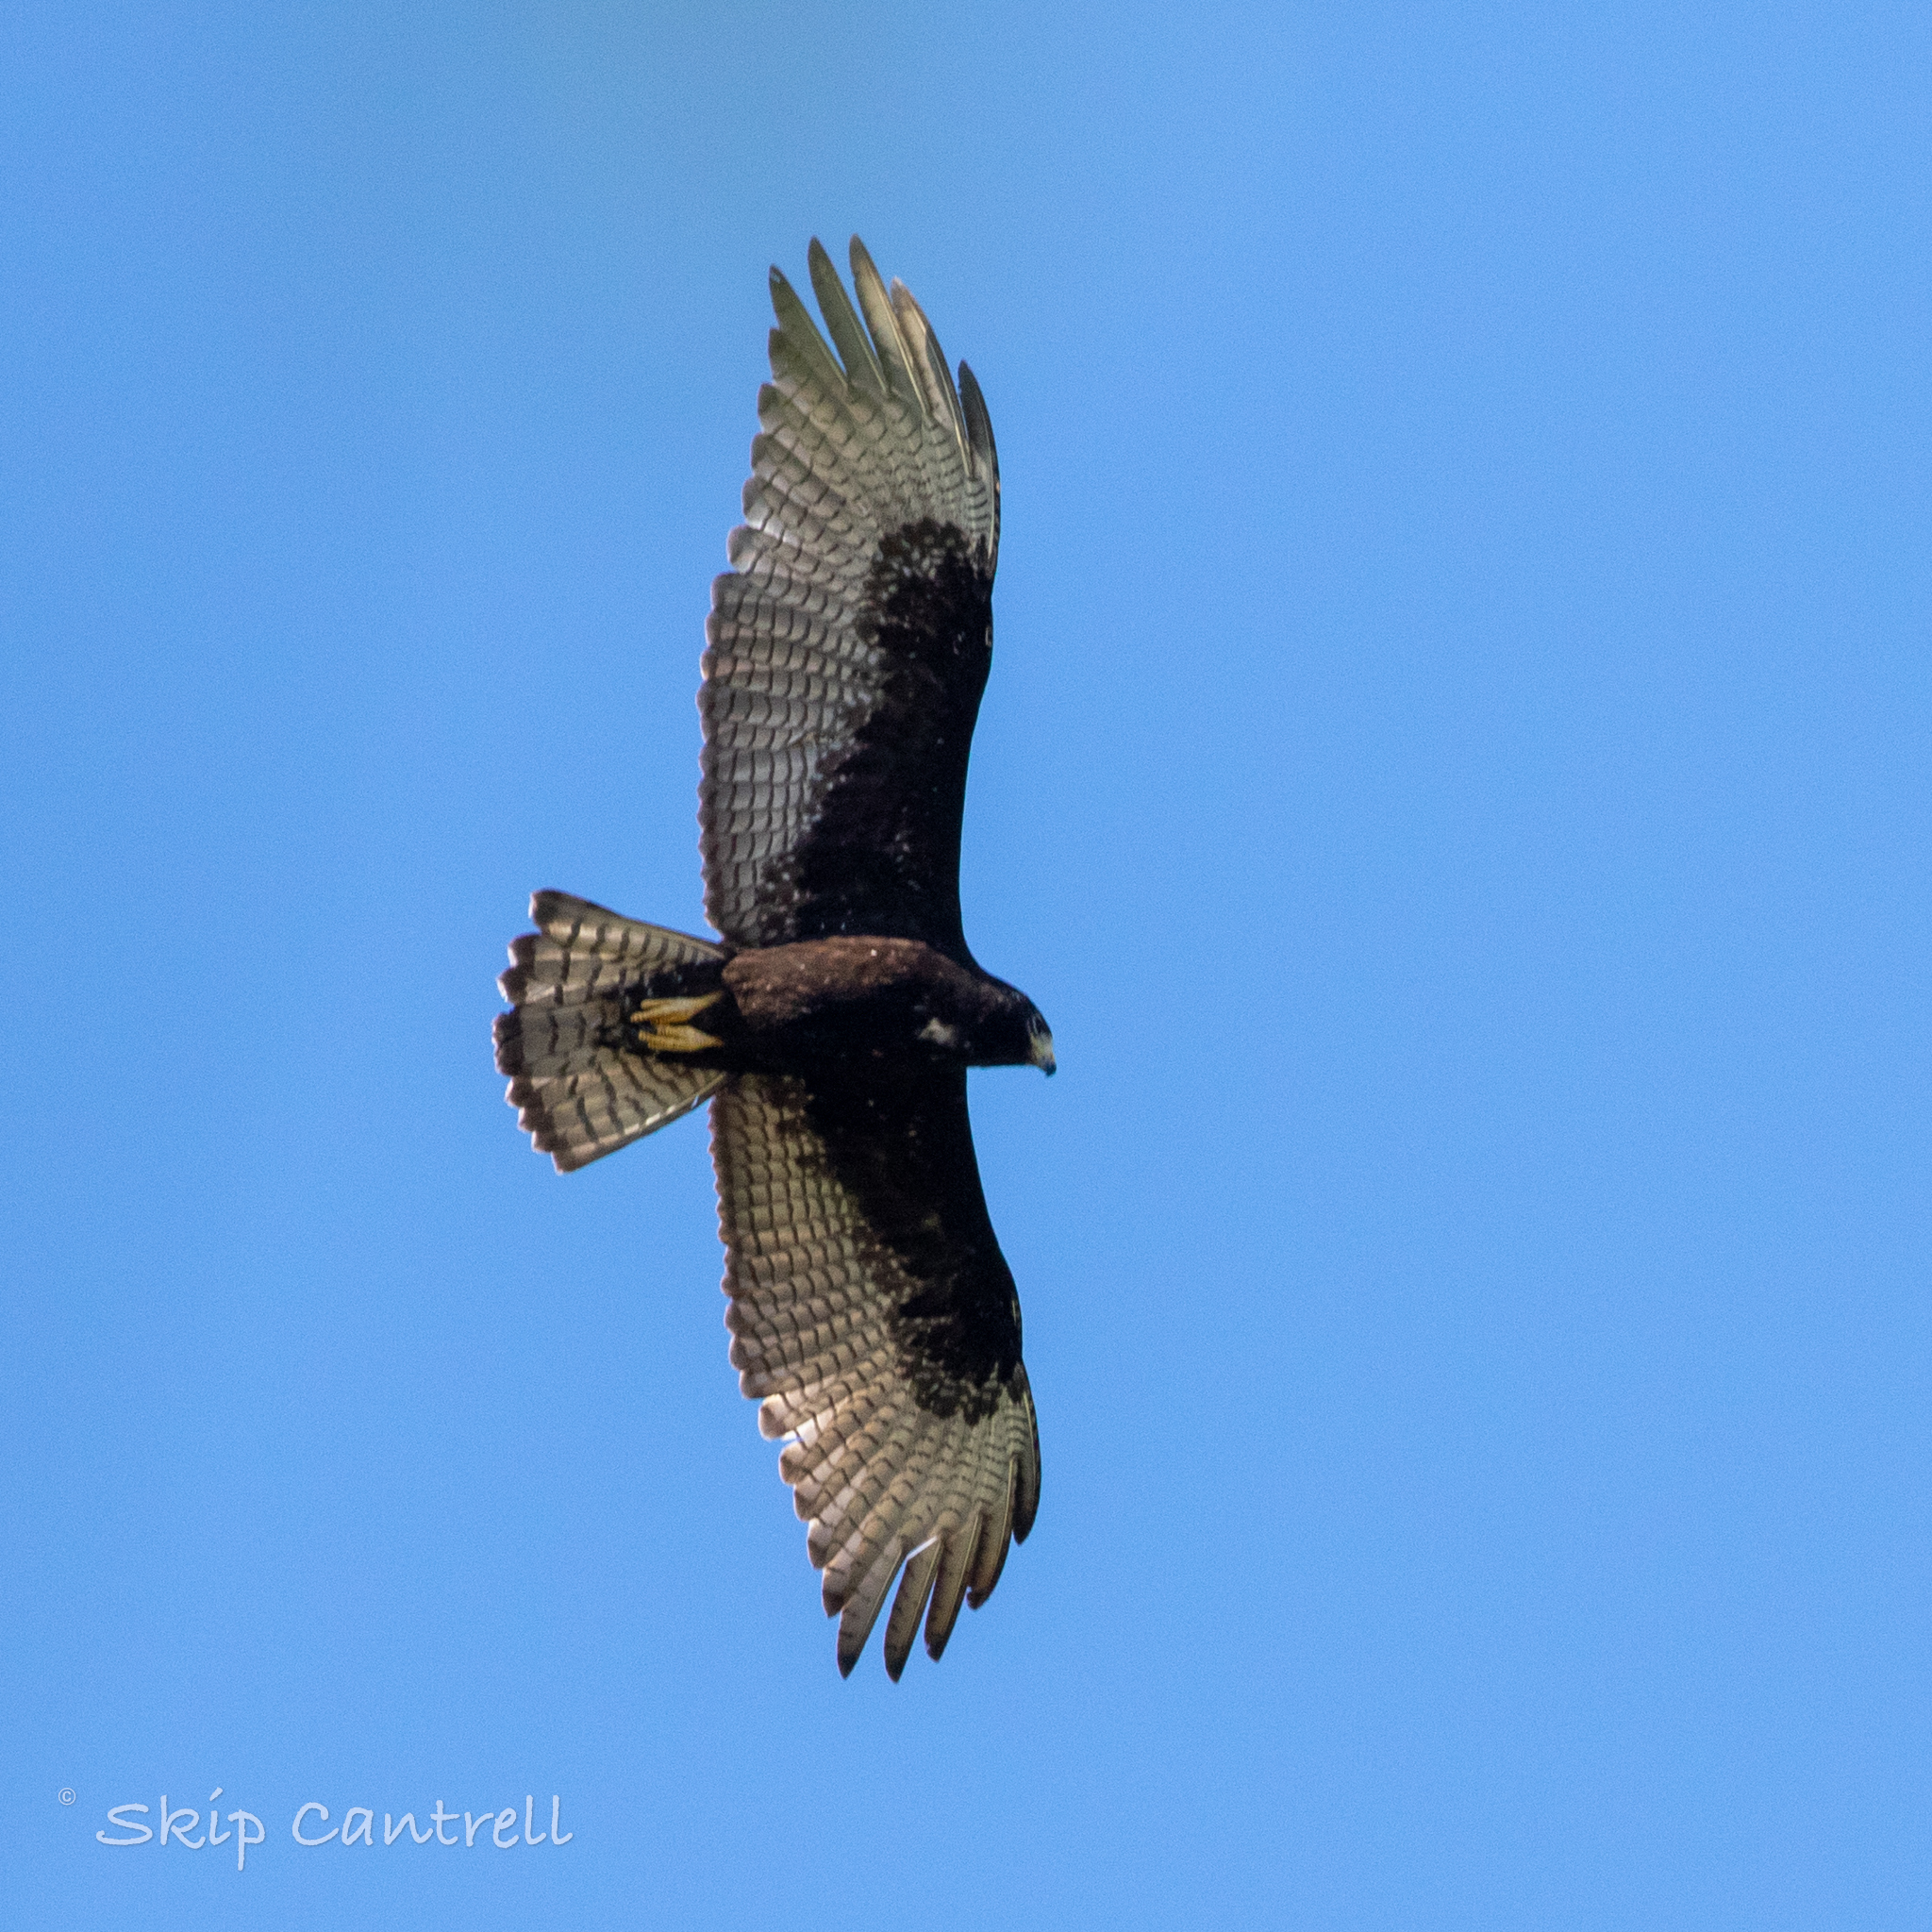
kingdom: Animalia
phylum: Chordata
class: Aves
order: Accipitriformes
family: Accipitridae
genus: Buteo
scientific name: Buteo albonotatus
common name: Zone-tailed hawk
